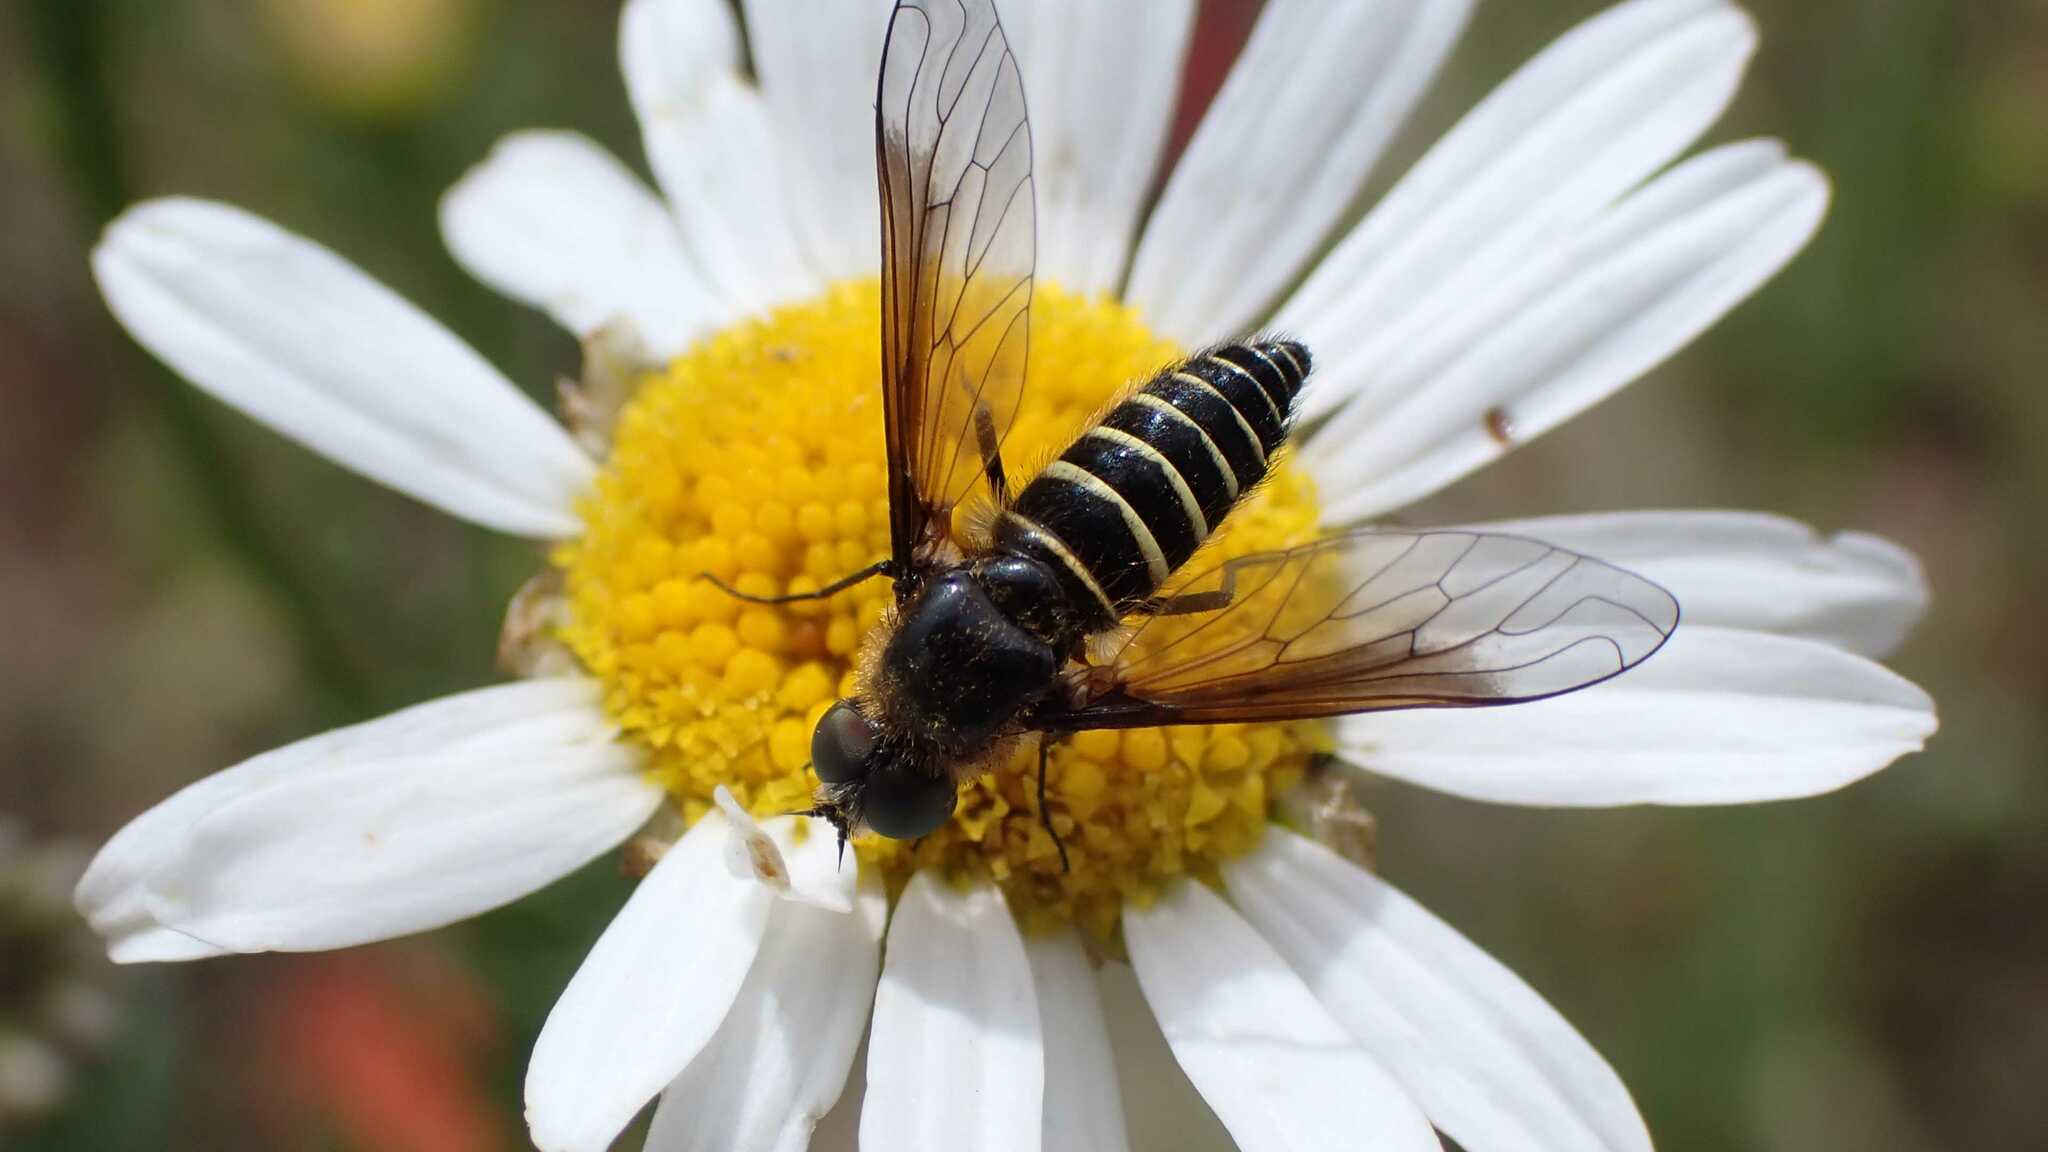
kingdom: Animalia
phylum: Arthropoda
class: Insecta
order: Diptera
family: Bombyliidae
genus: Lomatia
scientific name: Lomatia lateralis
